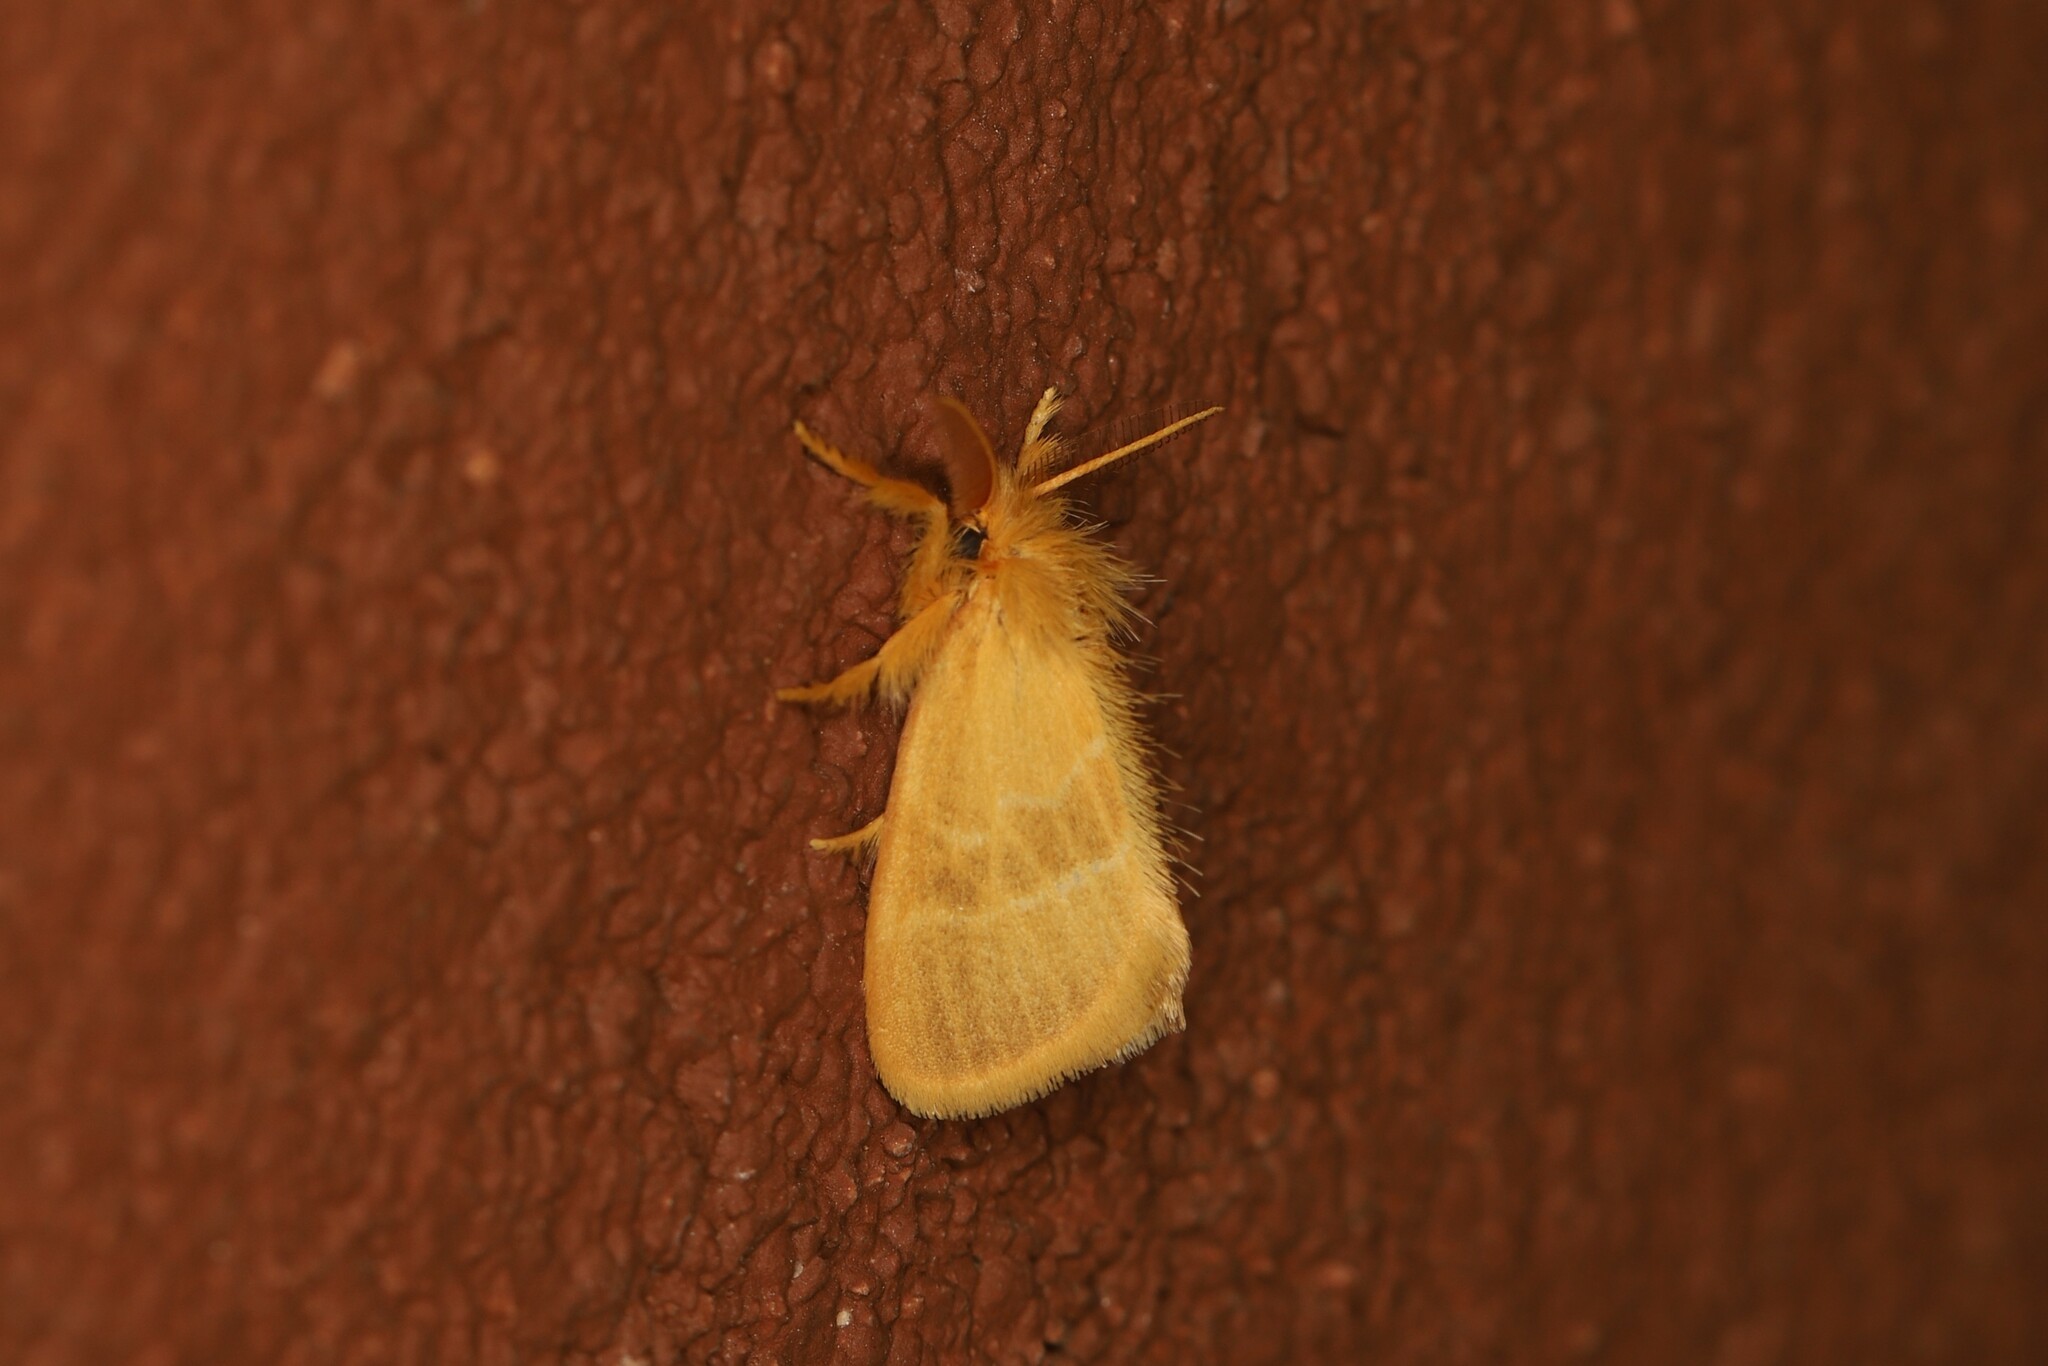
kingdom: Animalia
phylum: Arthropoda
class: Insecta
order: Lepidoptera
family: Erebidae
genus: Euproctis
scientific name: Euproctis chrysophaea
